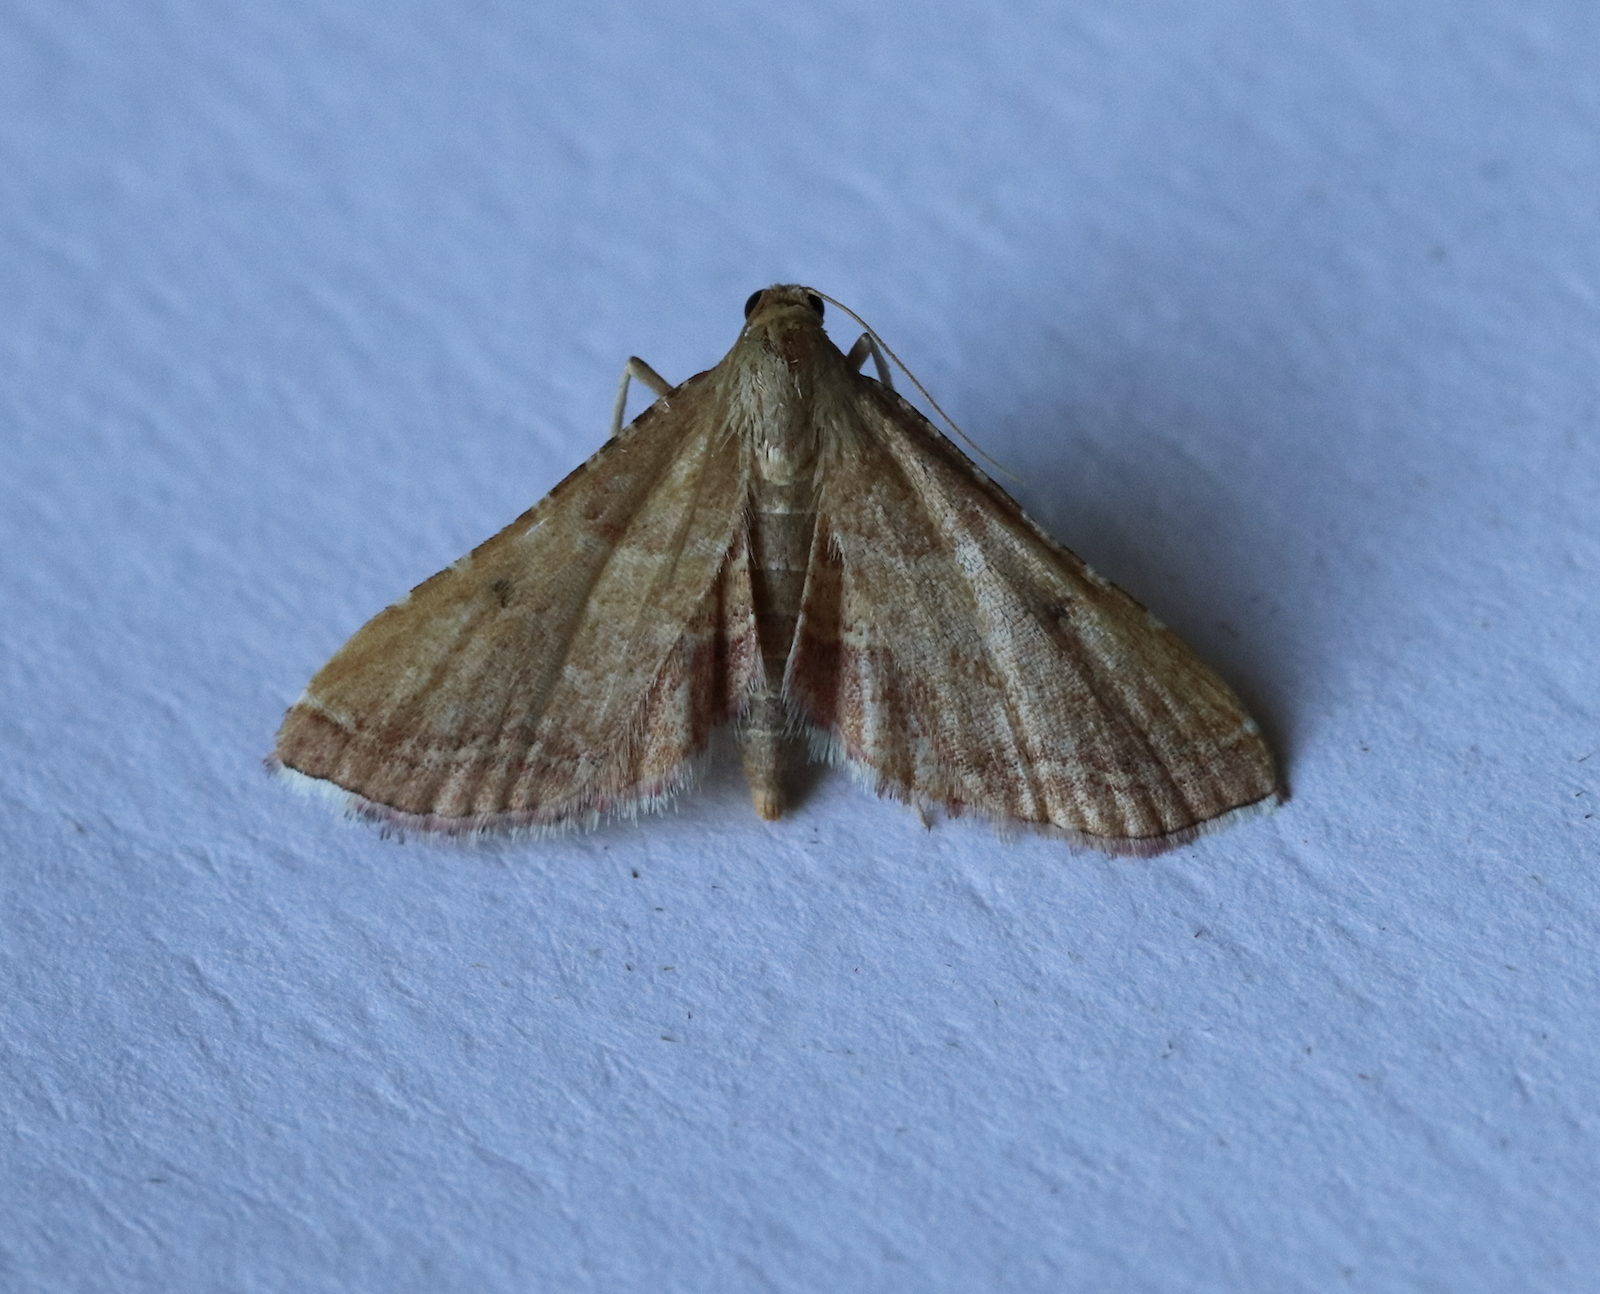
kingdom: Animalia
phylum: Arthropoda
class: Insecta
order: Lepidoptera
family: Pyralidae
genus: Endotricha
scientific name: Endotricha flammealis
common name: Rosy tabby
